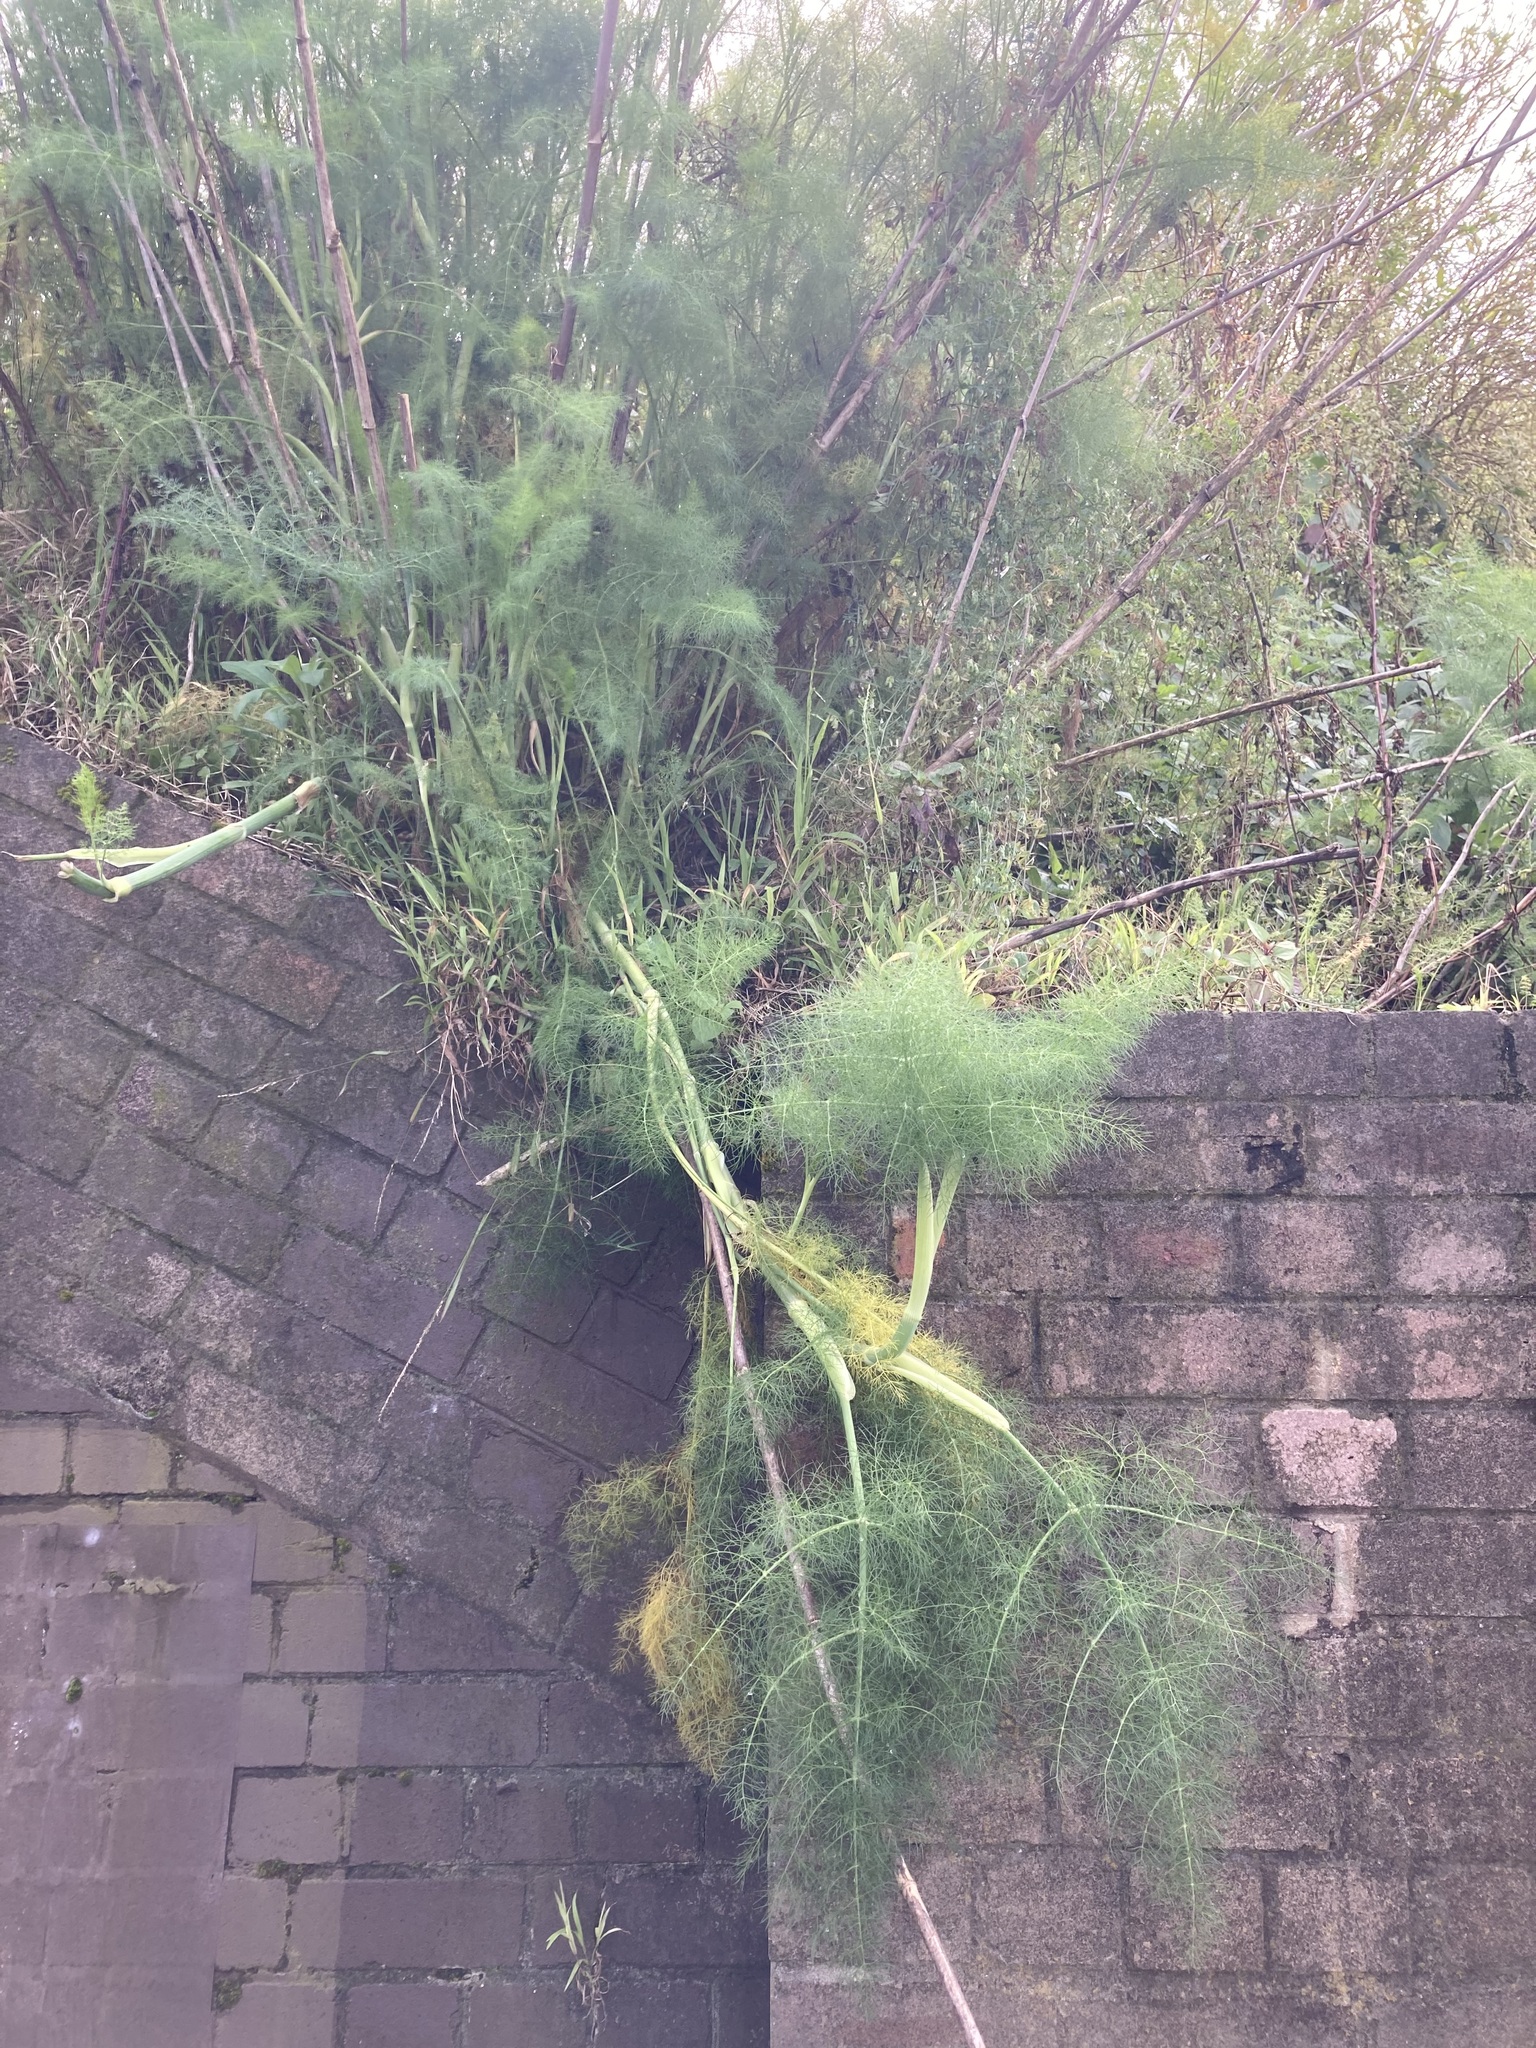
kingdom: Plantae
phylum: Tracheophyta
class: Magnoliopsida
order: Apiales
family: Apiaceae
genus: Foeniculum
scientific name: Foeniculum vulgare
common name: Fennel
